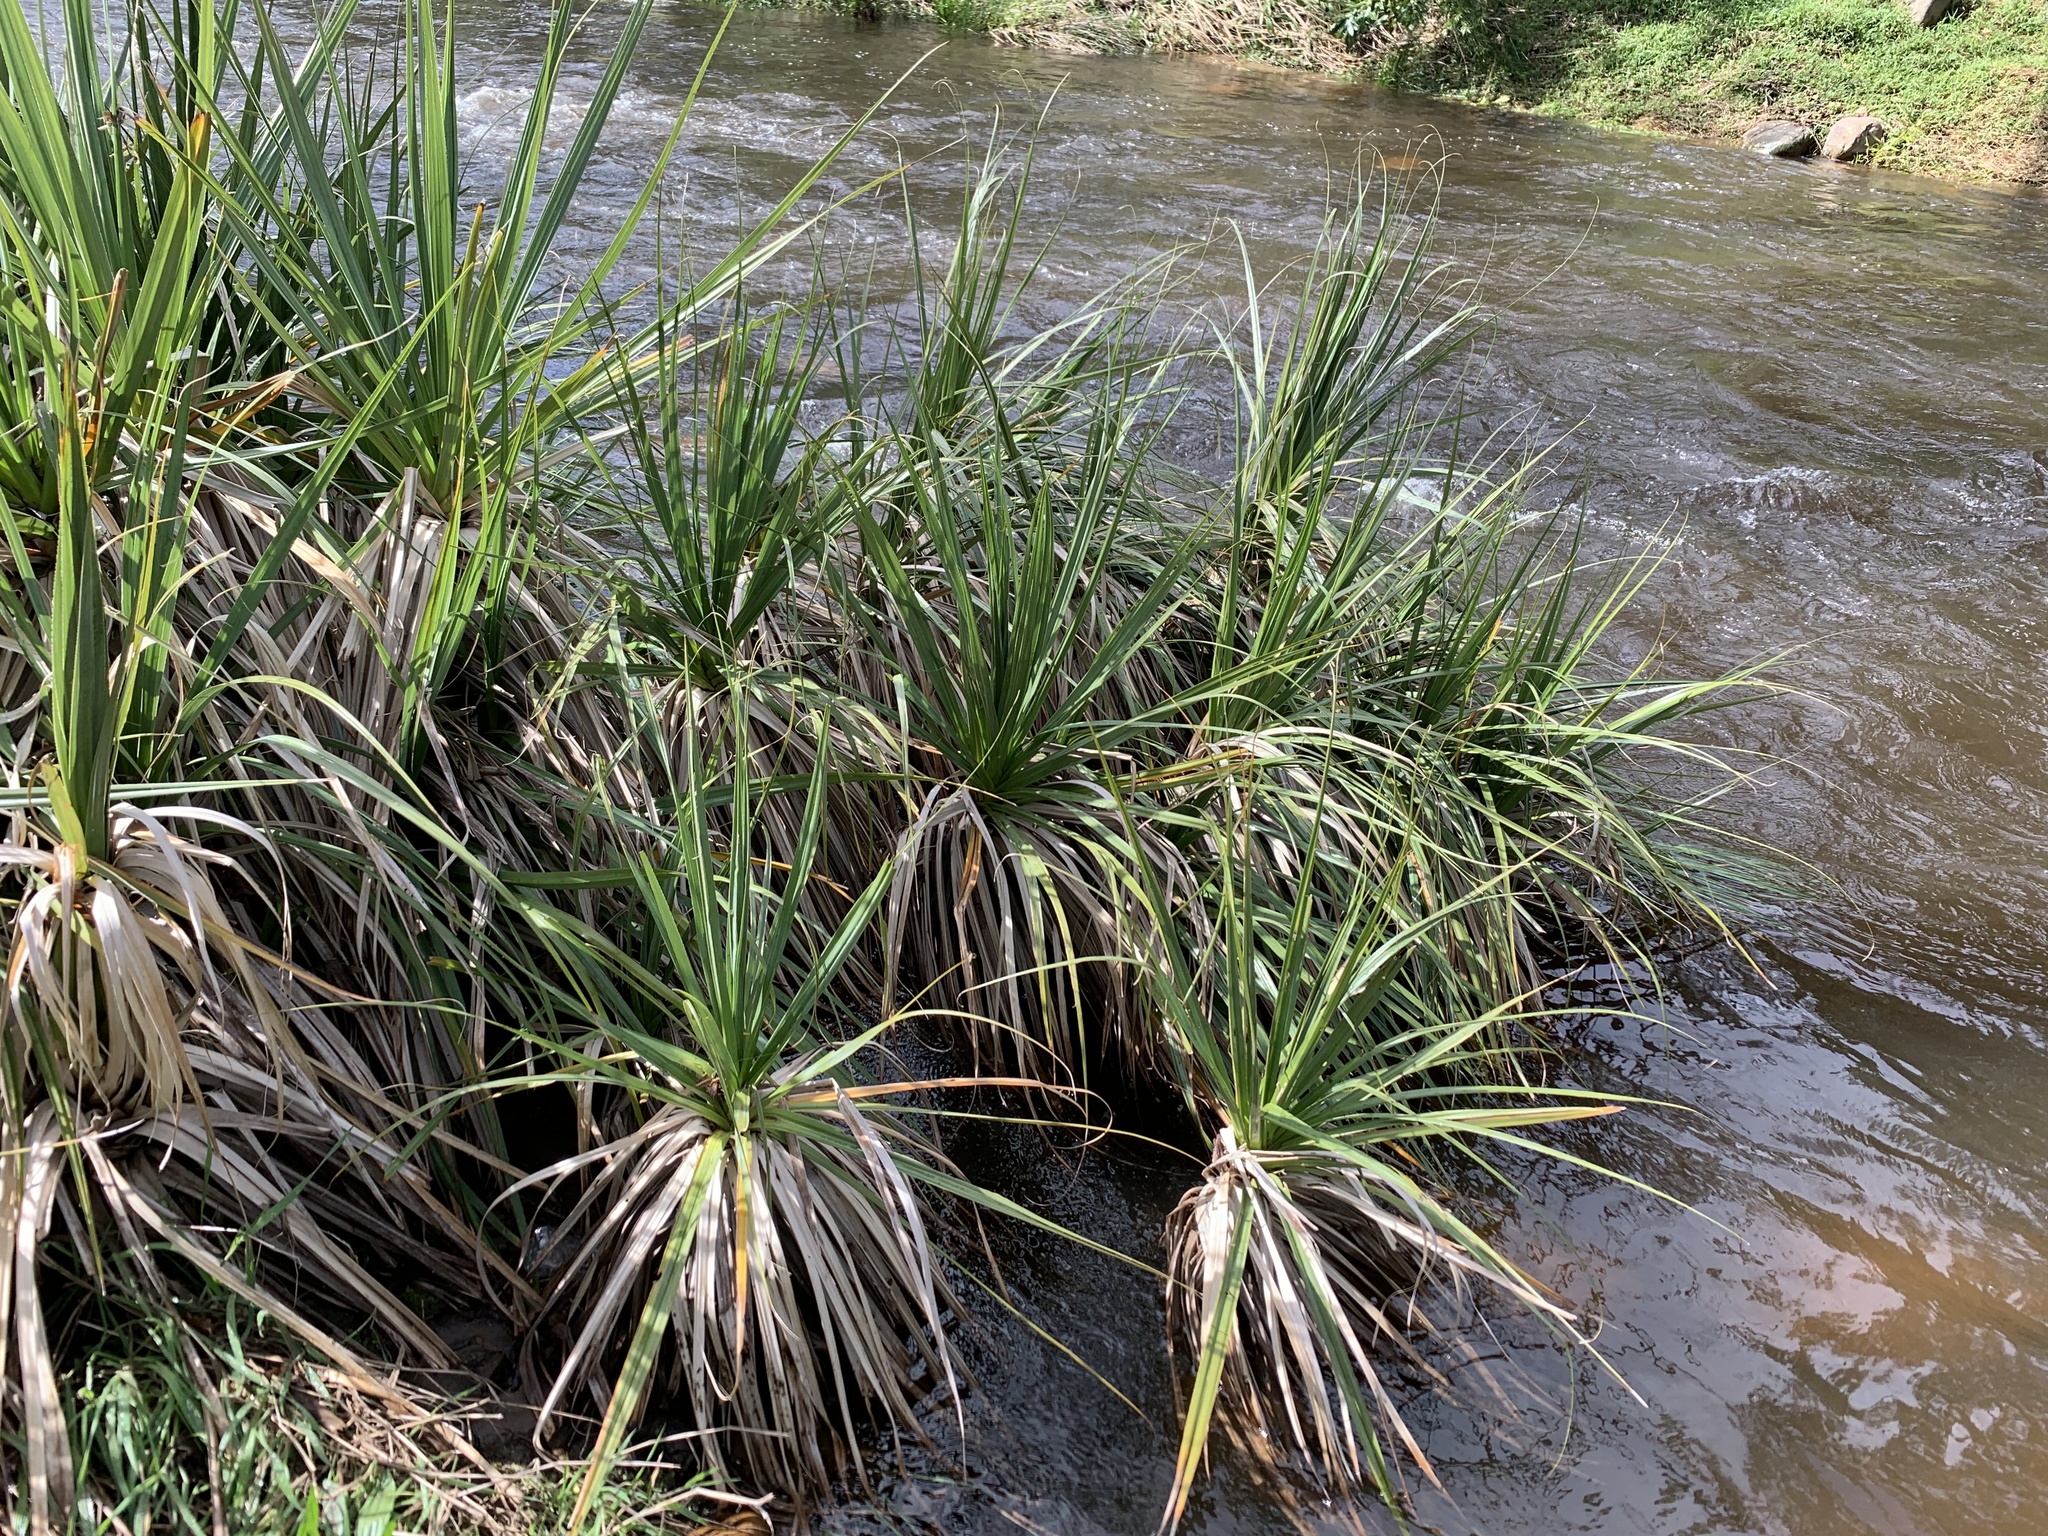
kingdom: Plantae
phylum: Tracheophyta
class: Liliopsida
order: Poales
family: Thurniaceae
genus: Prionium
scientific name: Prionium serratum
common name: Palmiet
